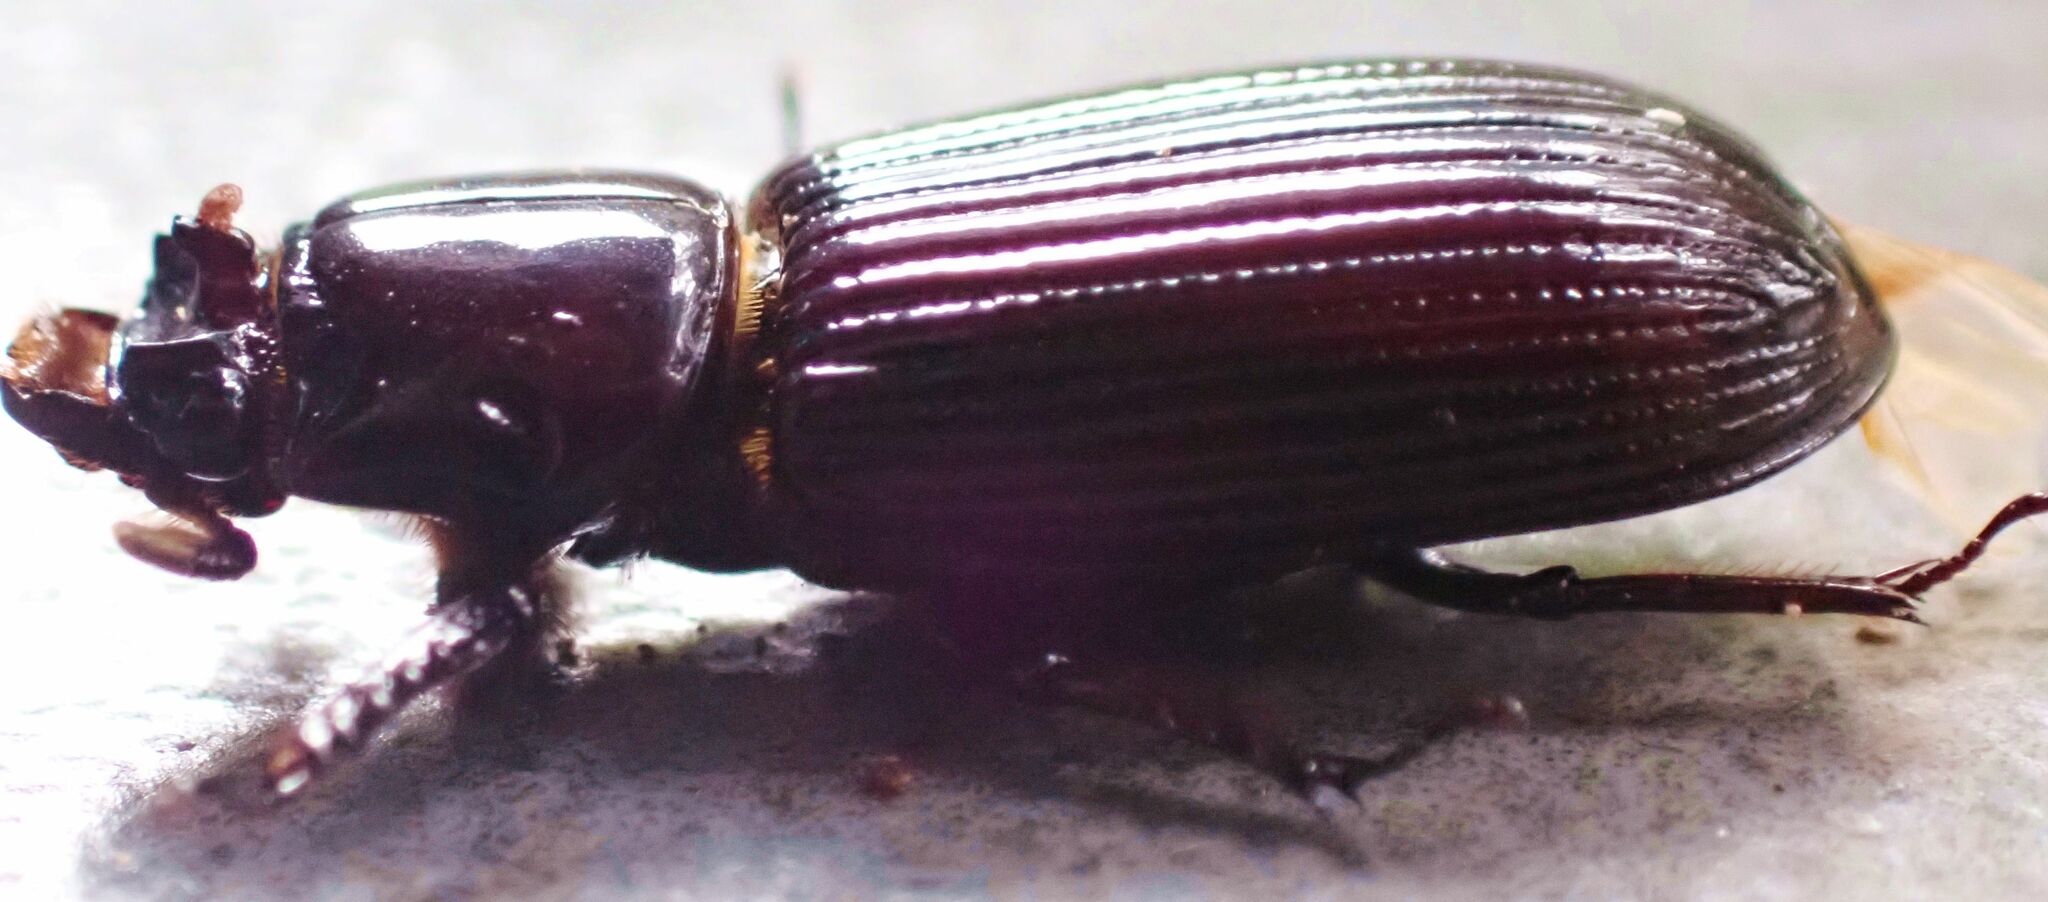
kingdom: Animalia
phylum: Arthropoda
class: Insecta
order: Coleoptera
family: Passalidae
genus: Aulacocyclus
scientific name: Aulacocyclus fracticornis
